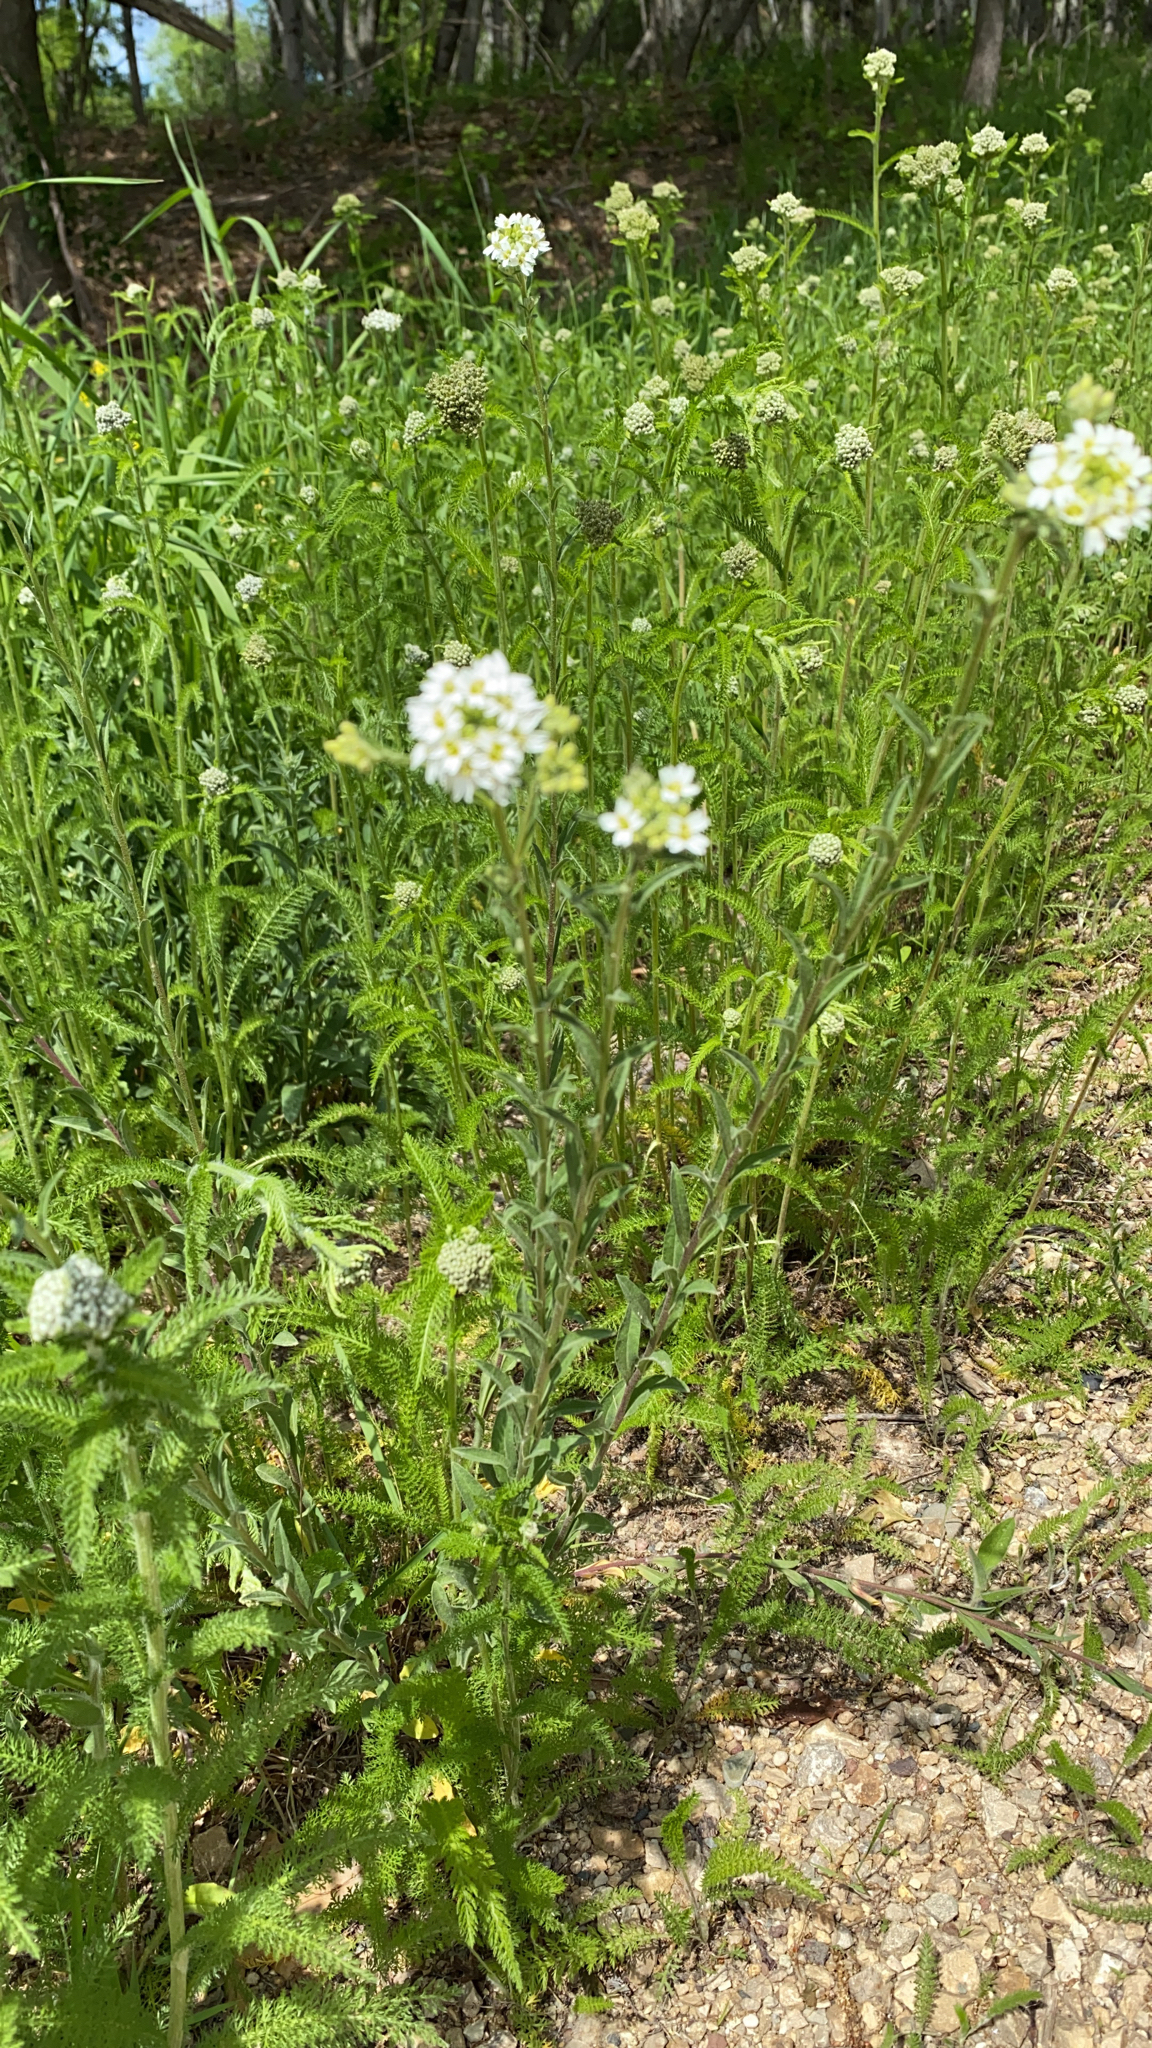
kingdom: Plantae
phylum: Tracheophyta
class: Magnoliopsida
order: Brassicales
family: Brassicaceae
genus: Berteroa
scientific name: Berteroa incana
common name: Hoary alison
